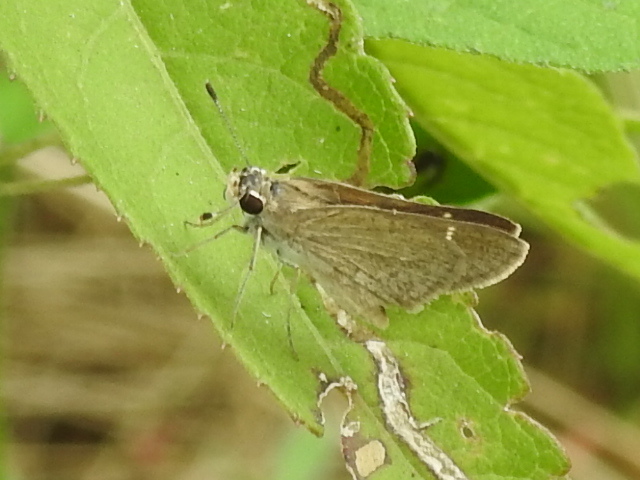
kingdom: Animalia
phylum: Arthropoda
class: Insecta
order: Lepidoptera
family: Hesperiidae
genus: Lerodea
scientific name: Lerodea eufala
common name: Eufala skipper
